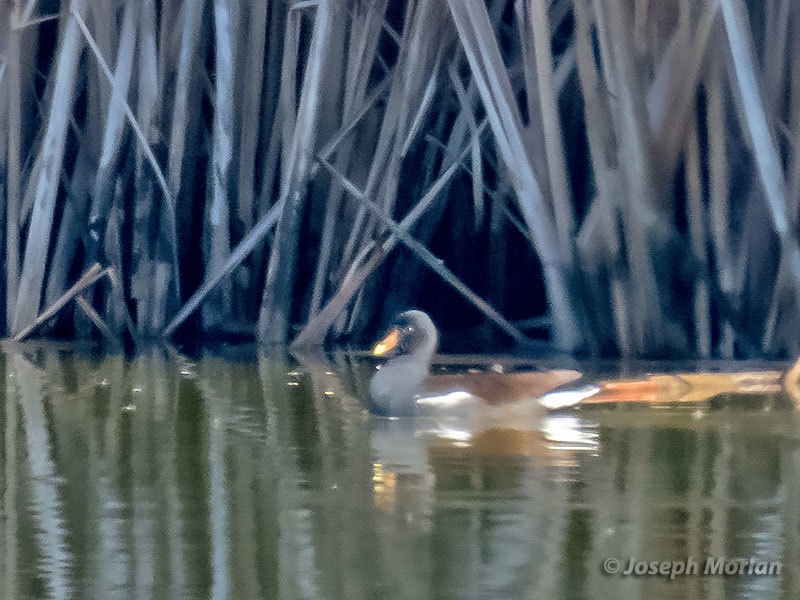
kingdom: Animalia
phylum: Chordata
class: Aves
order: Gruiformes
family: Rallidae
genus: Gallinula
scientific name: Gallinula chloropus
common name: Common moorhen
